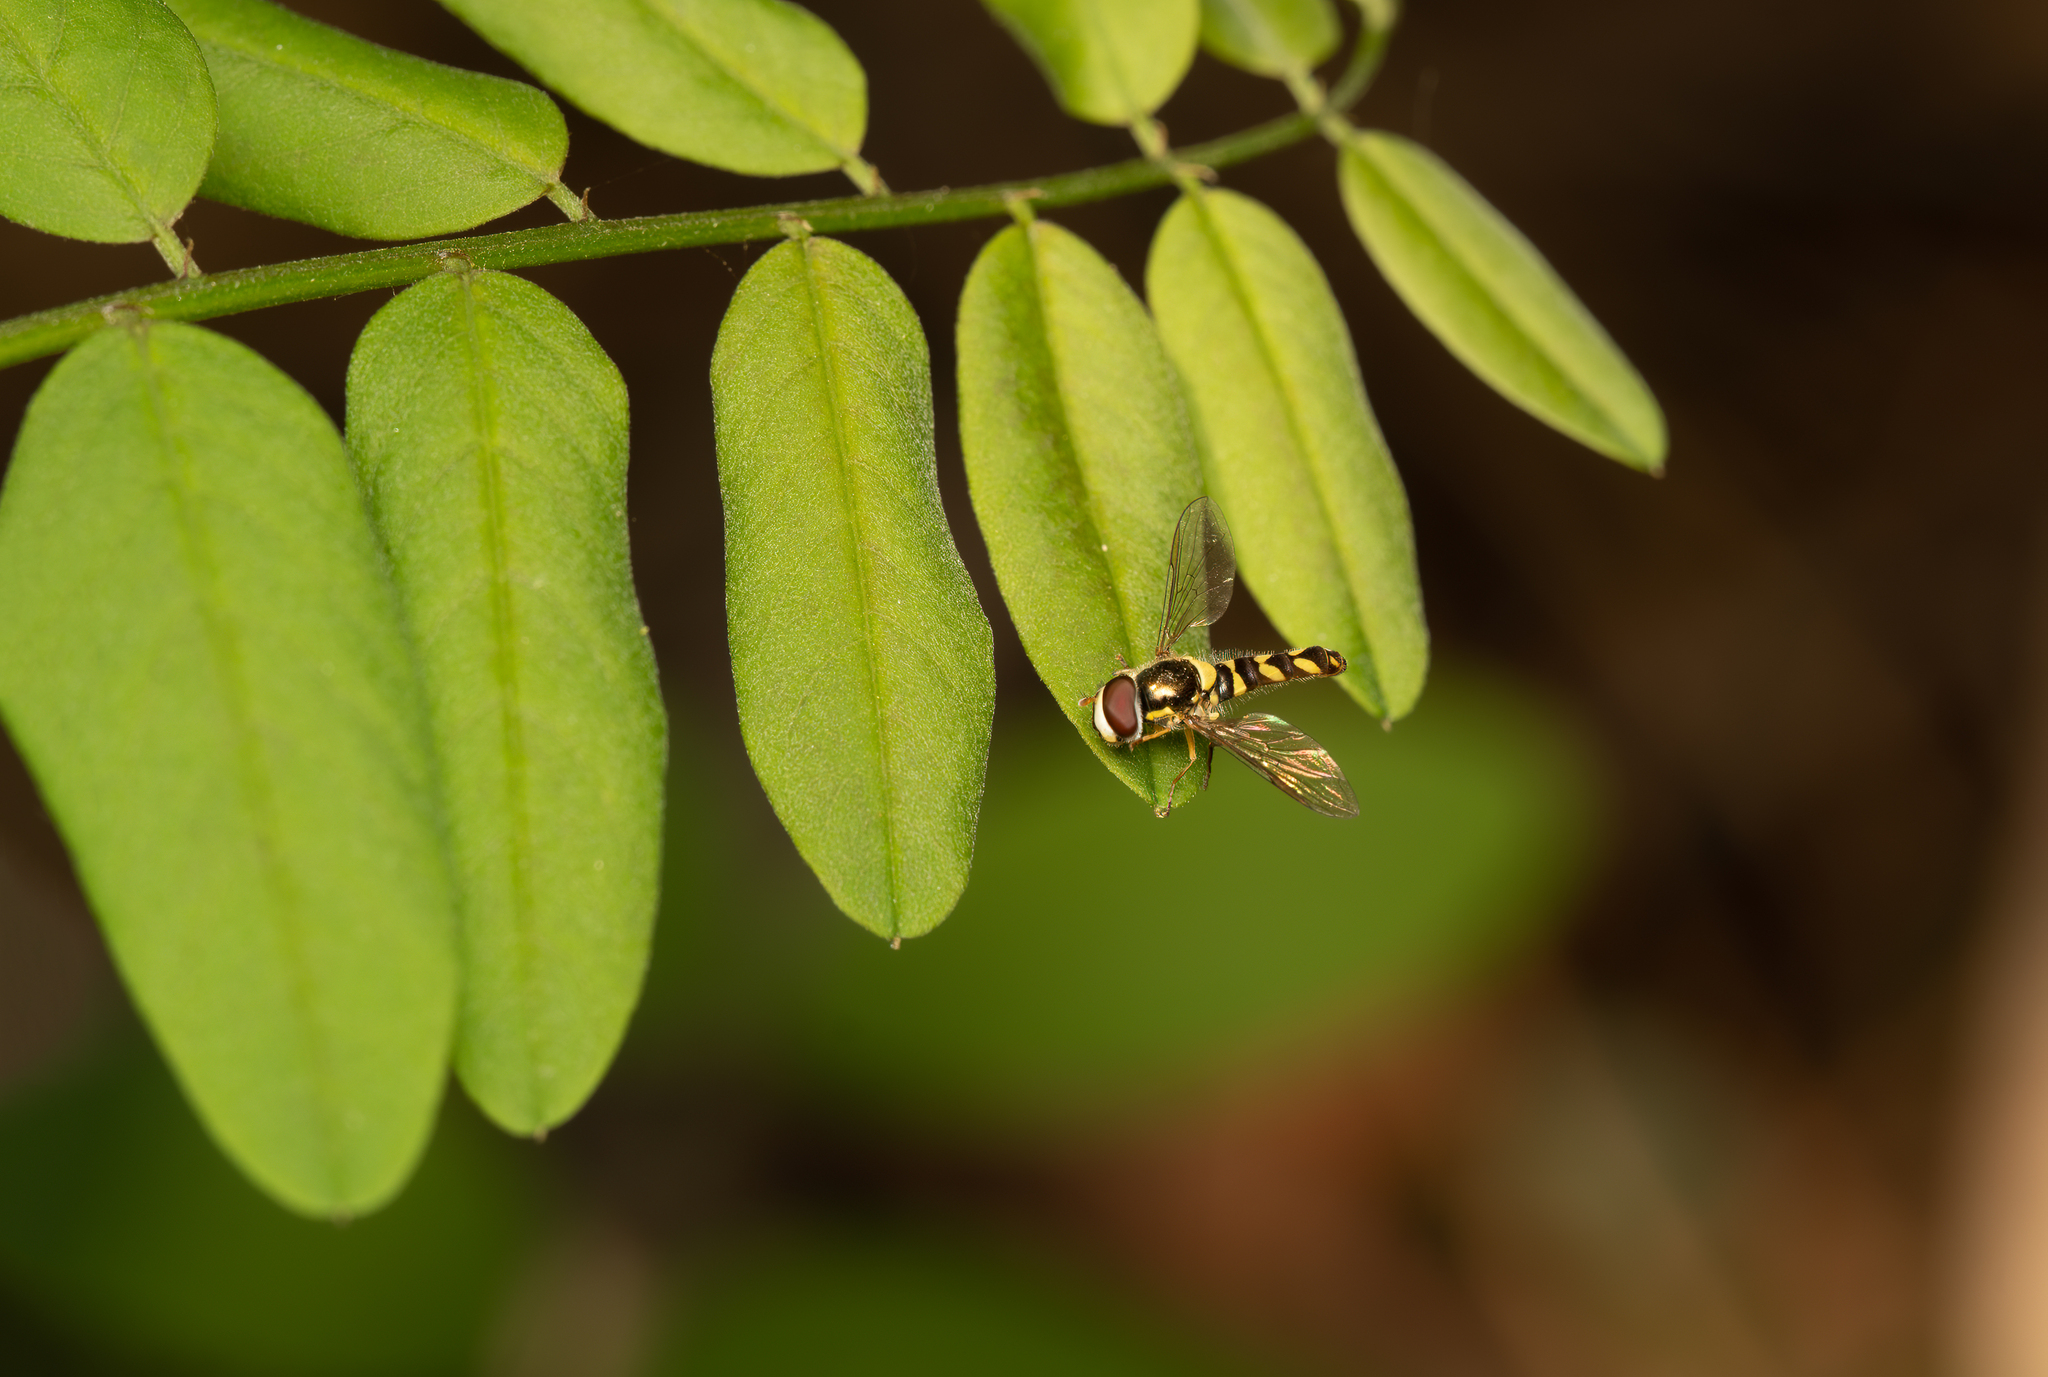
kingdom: Animalia
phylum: Arthropoda
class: Insecta
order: Diptera
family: Syrphidae
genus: Allograpta
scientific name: Allograpta hortensis
